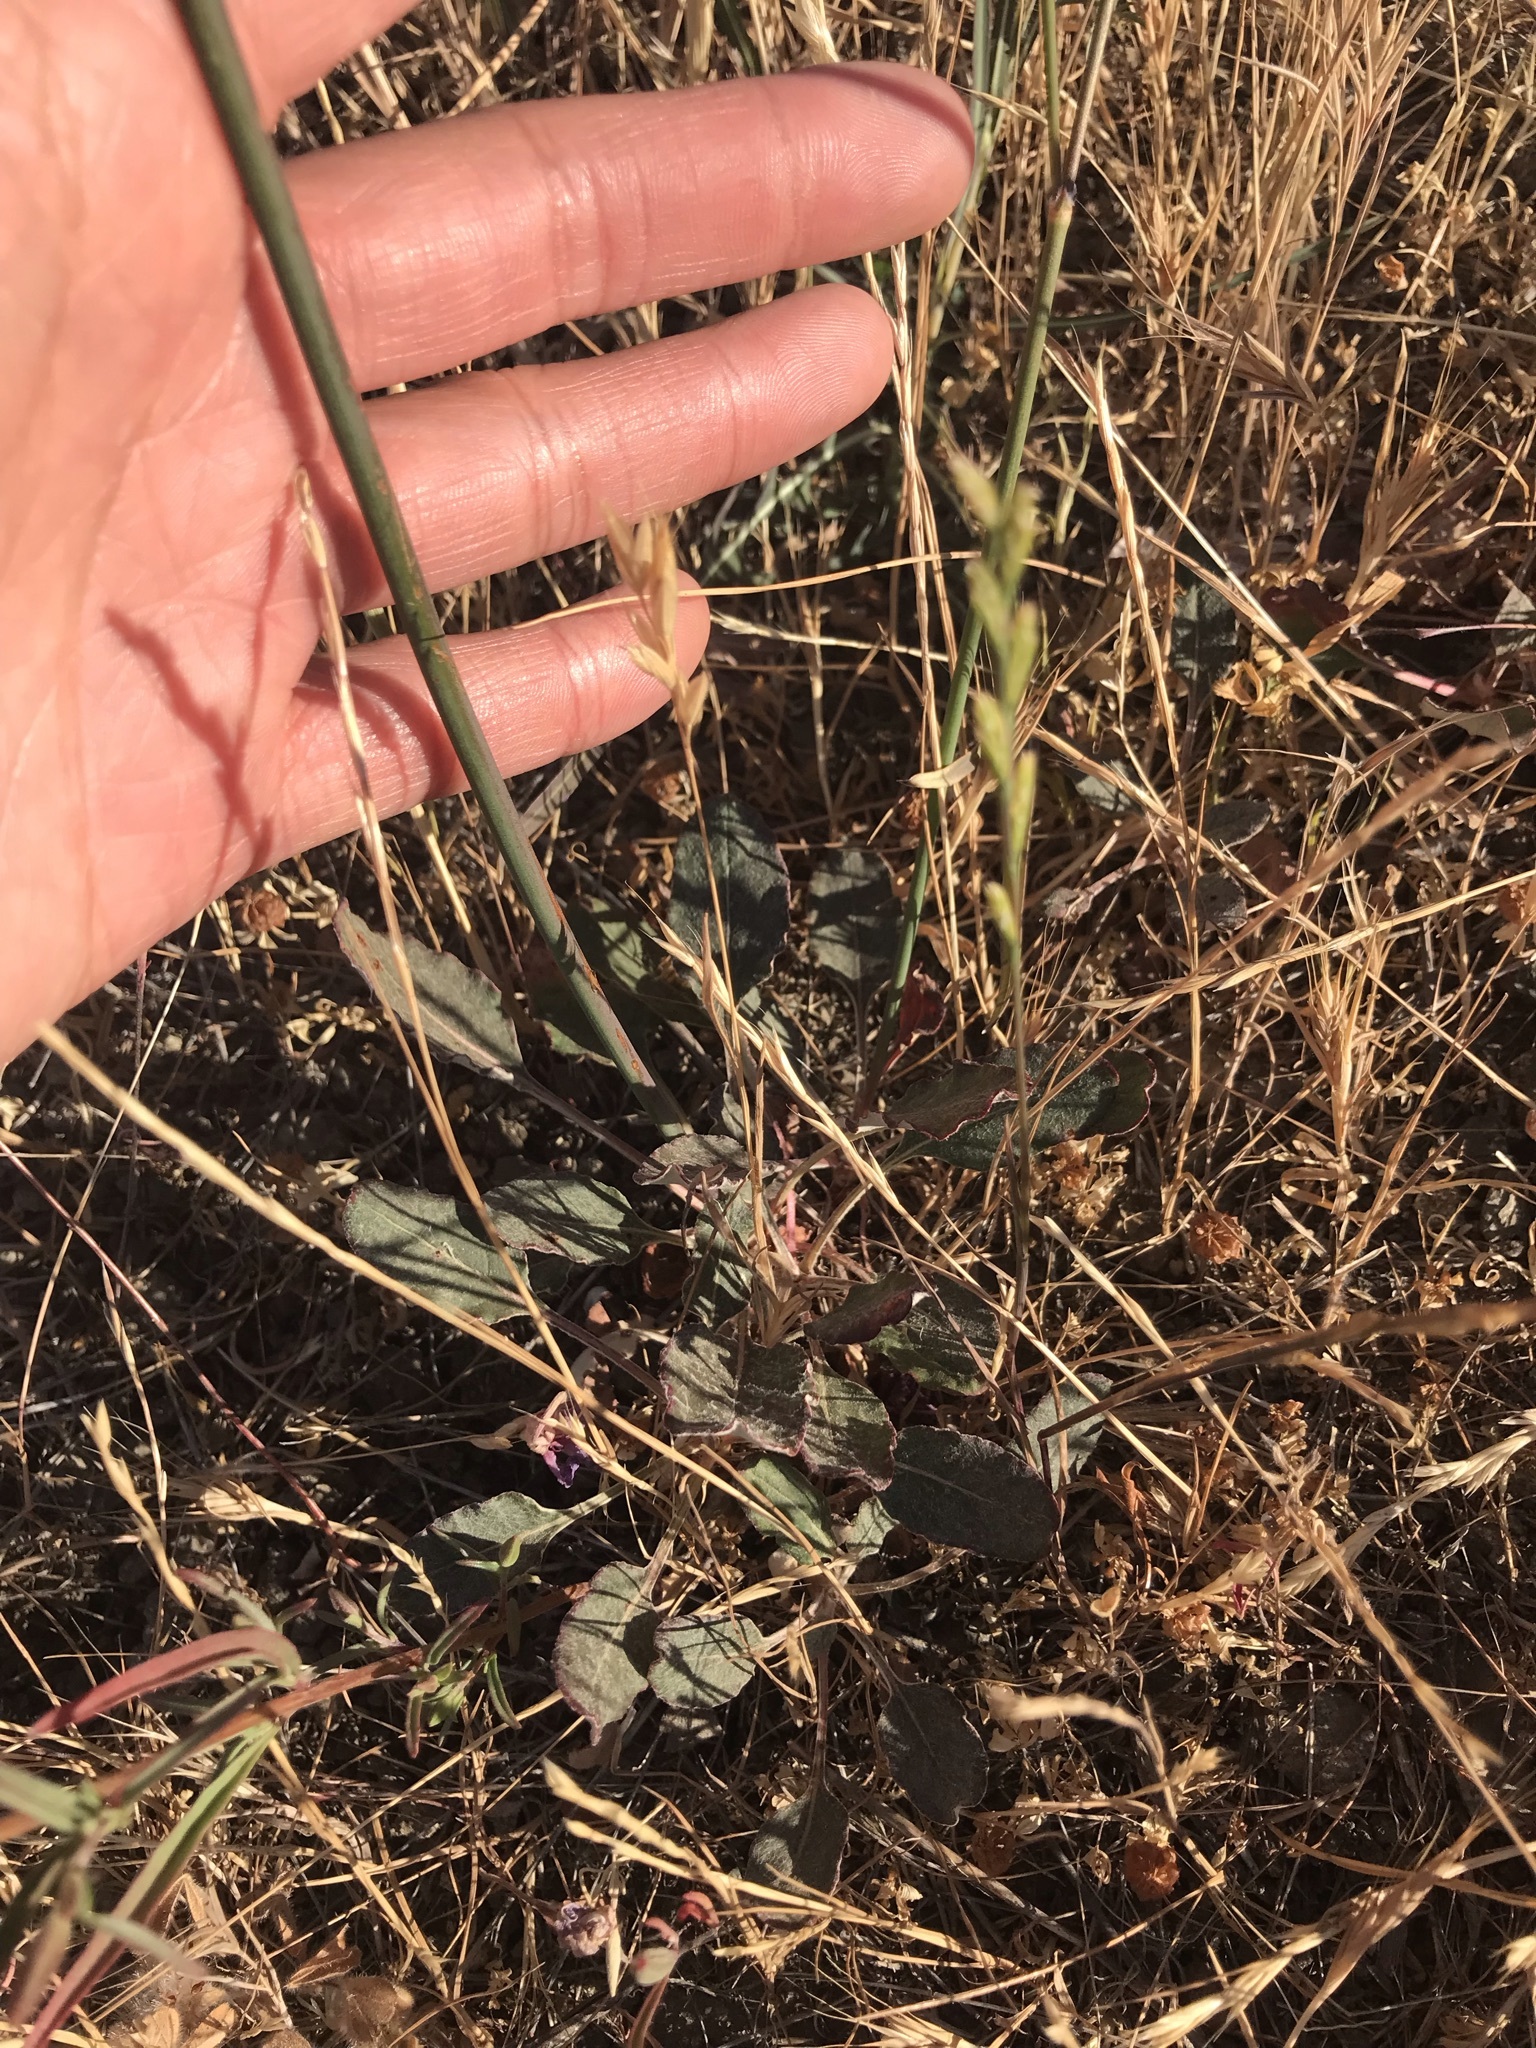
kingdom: Plantae
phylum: Tracheophyta
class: Magnoliopsida
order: Caryophyllales
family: Polygonaceae
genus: Eriogonum
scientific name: Eriogonum nudum
